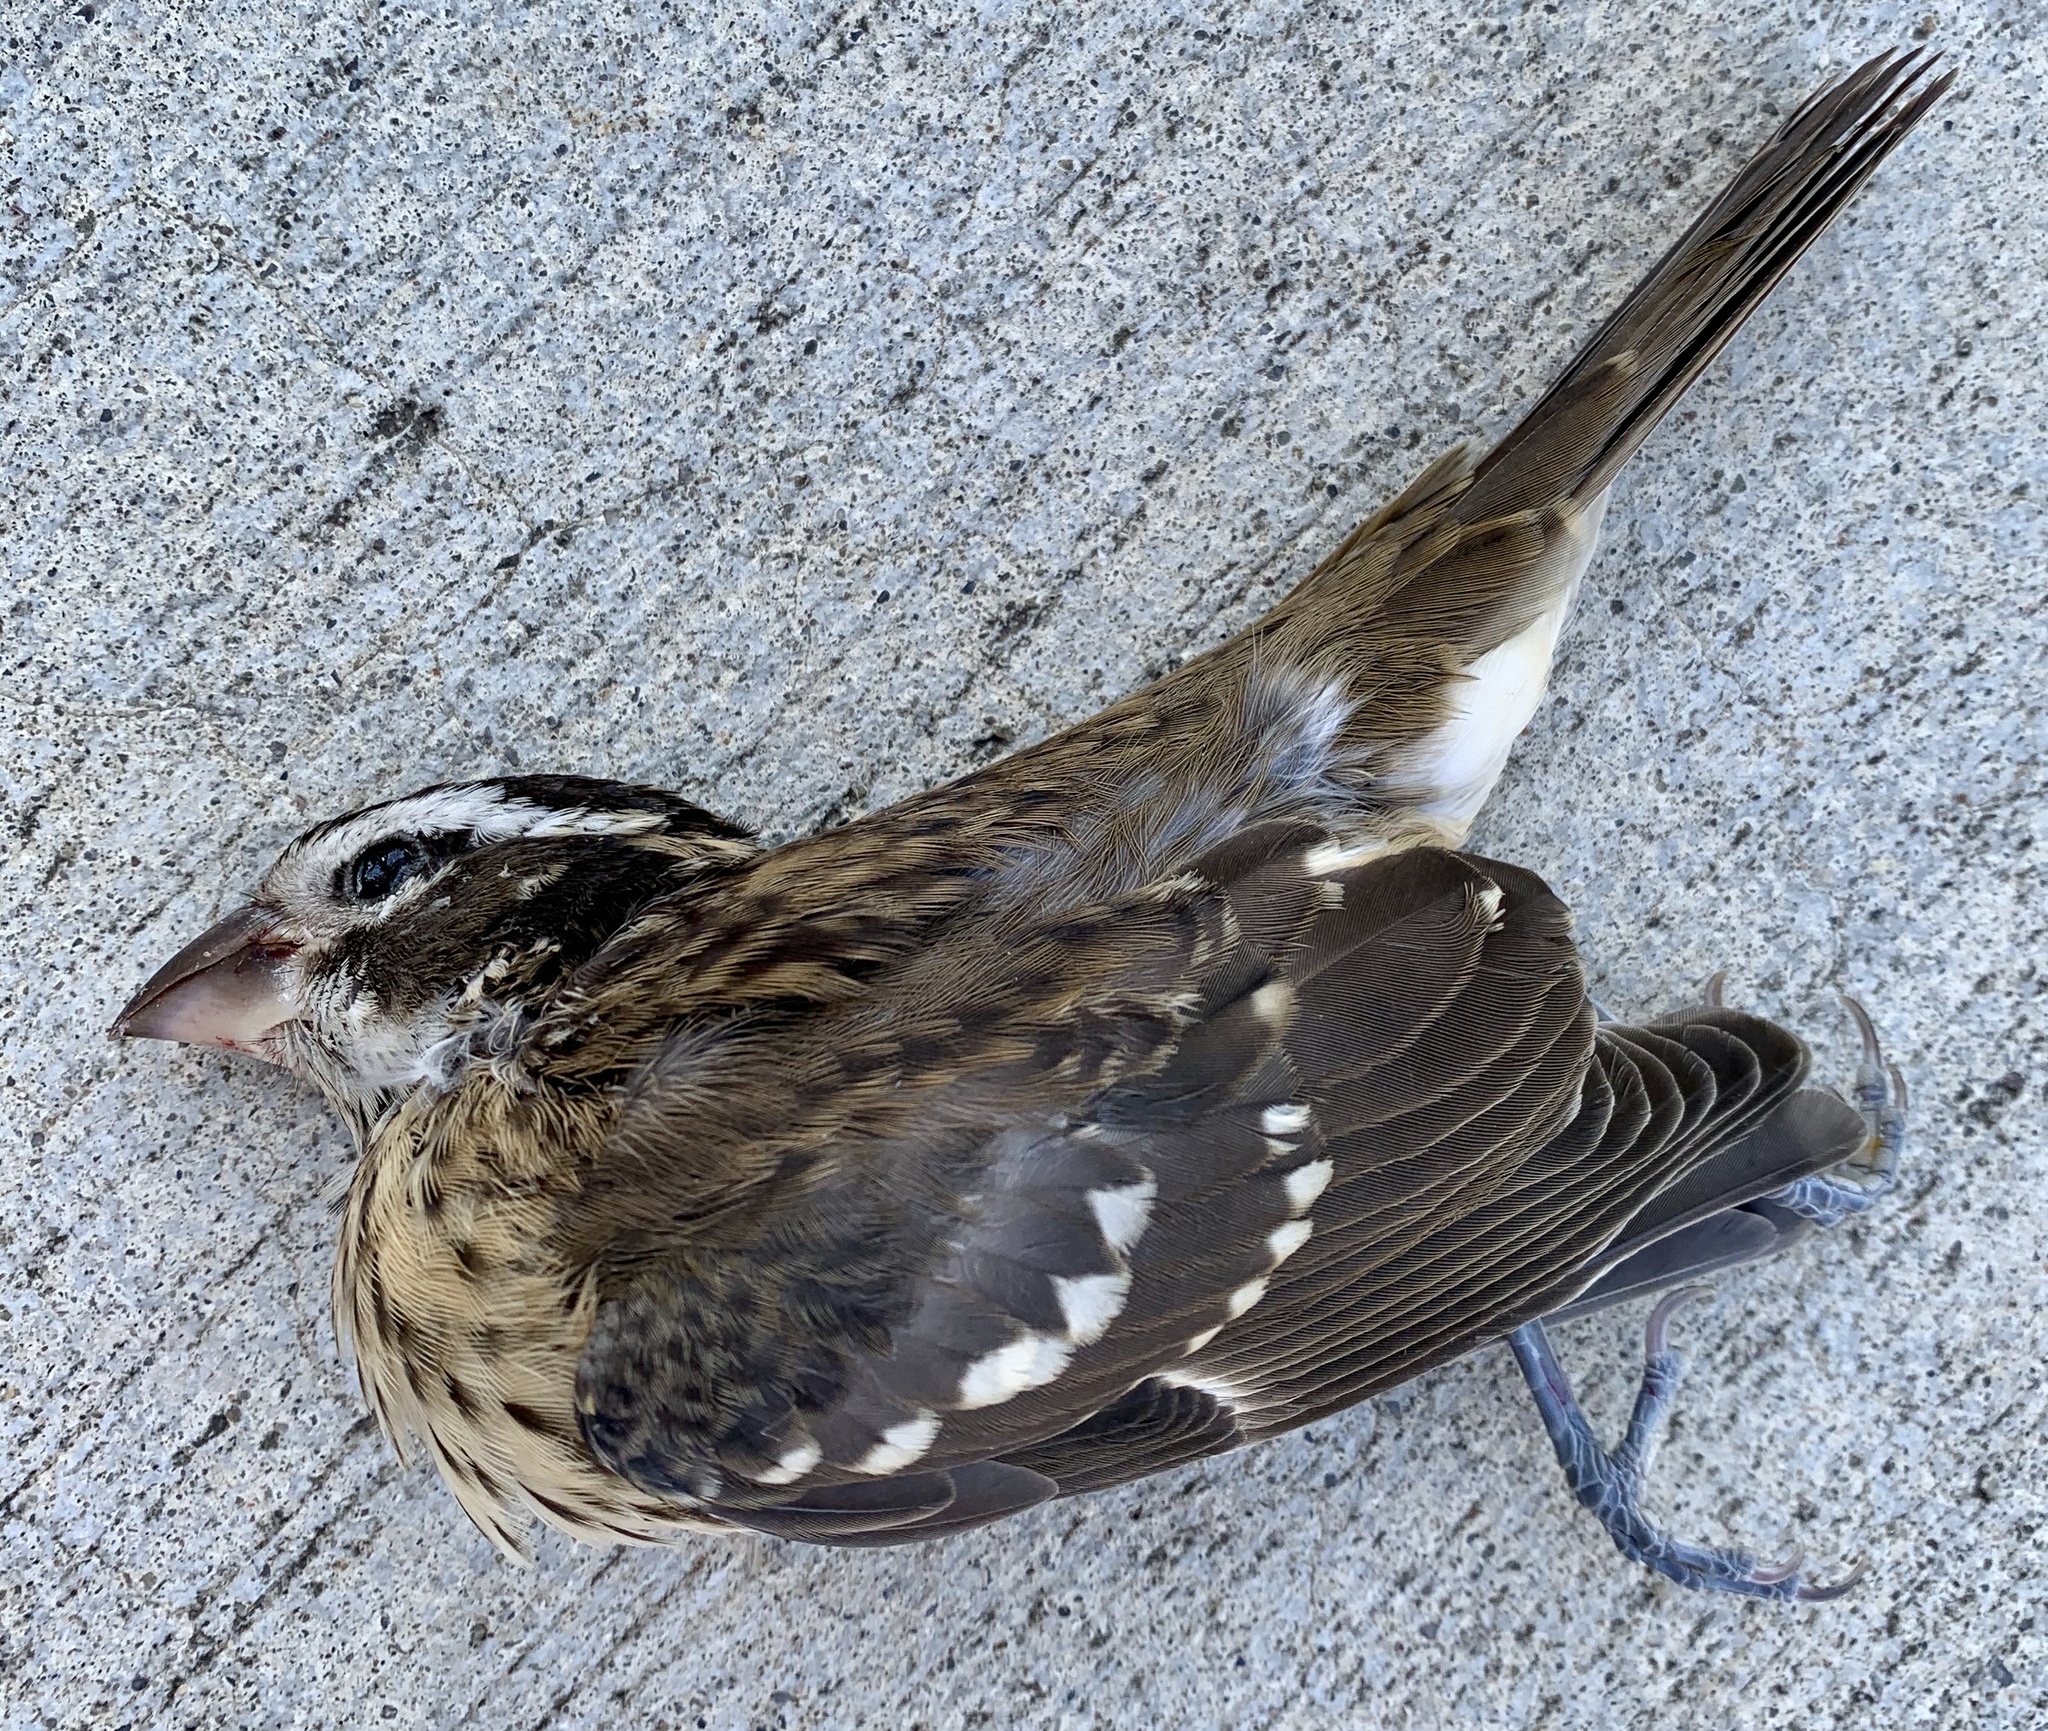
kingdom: Animalia
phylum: Chordata
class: Aves
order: Passeriformes
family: Cardinalidae
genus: Pheucticus
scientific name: Pheucticus ludovicianus
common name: Rose-breasted grosbeak
